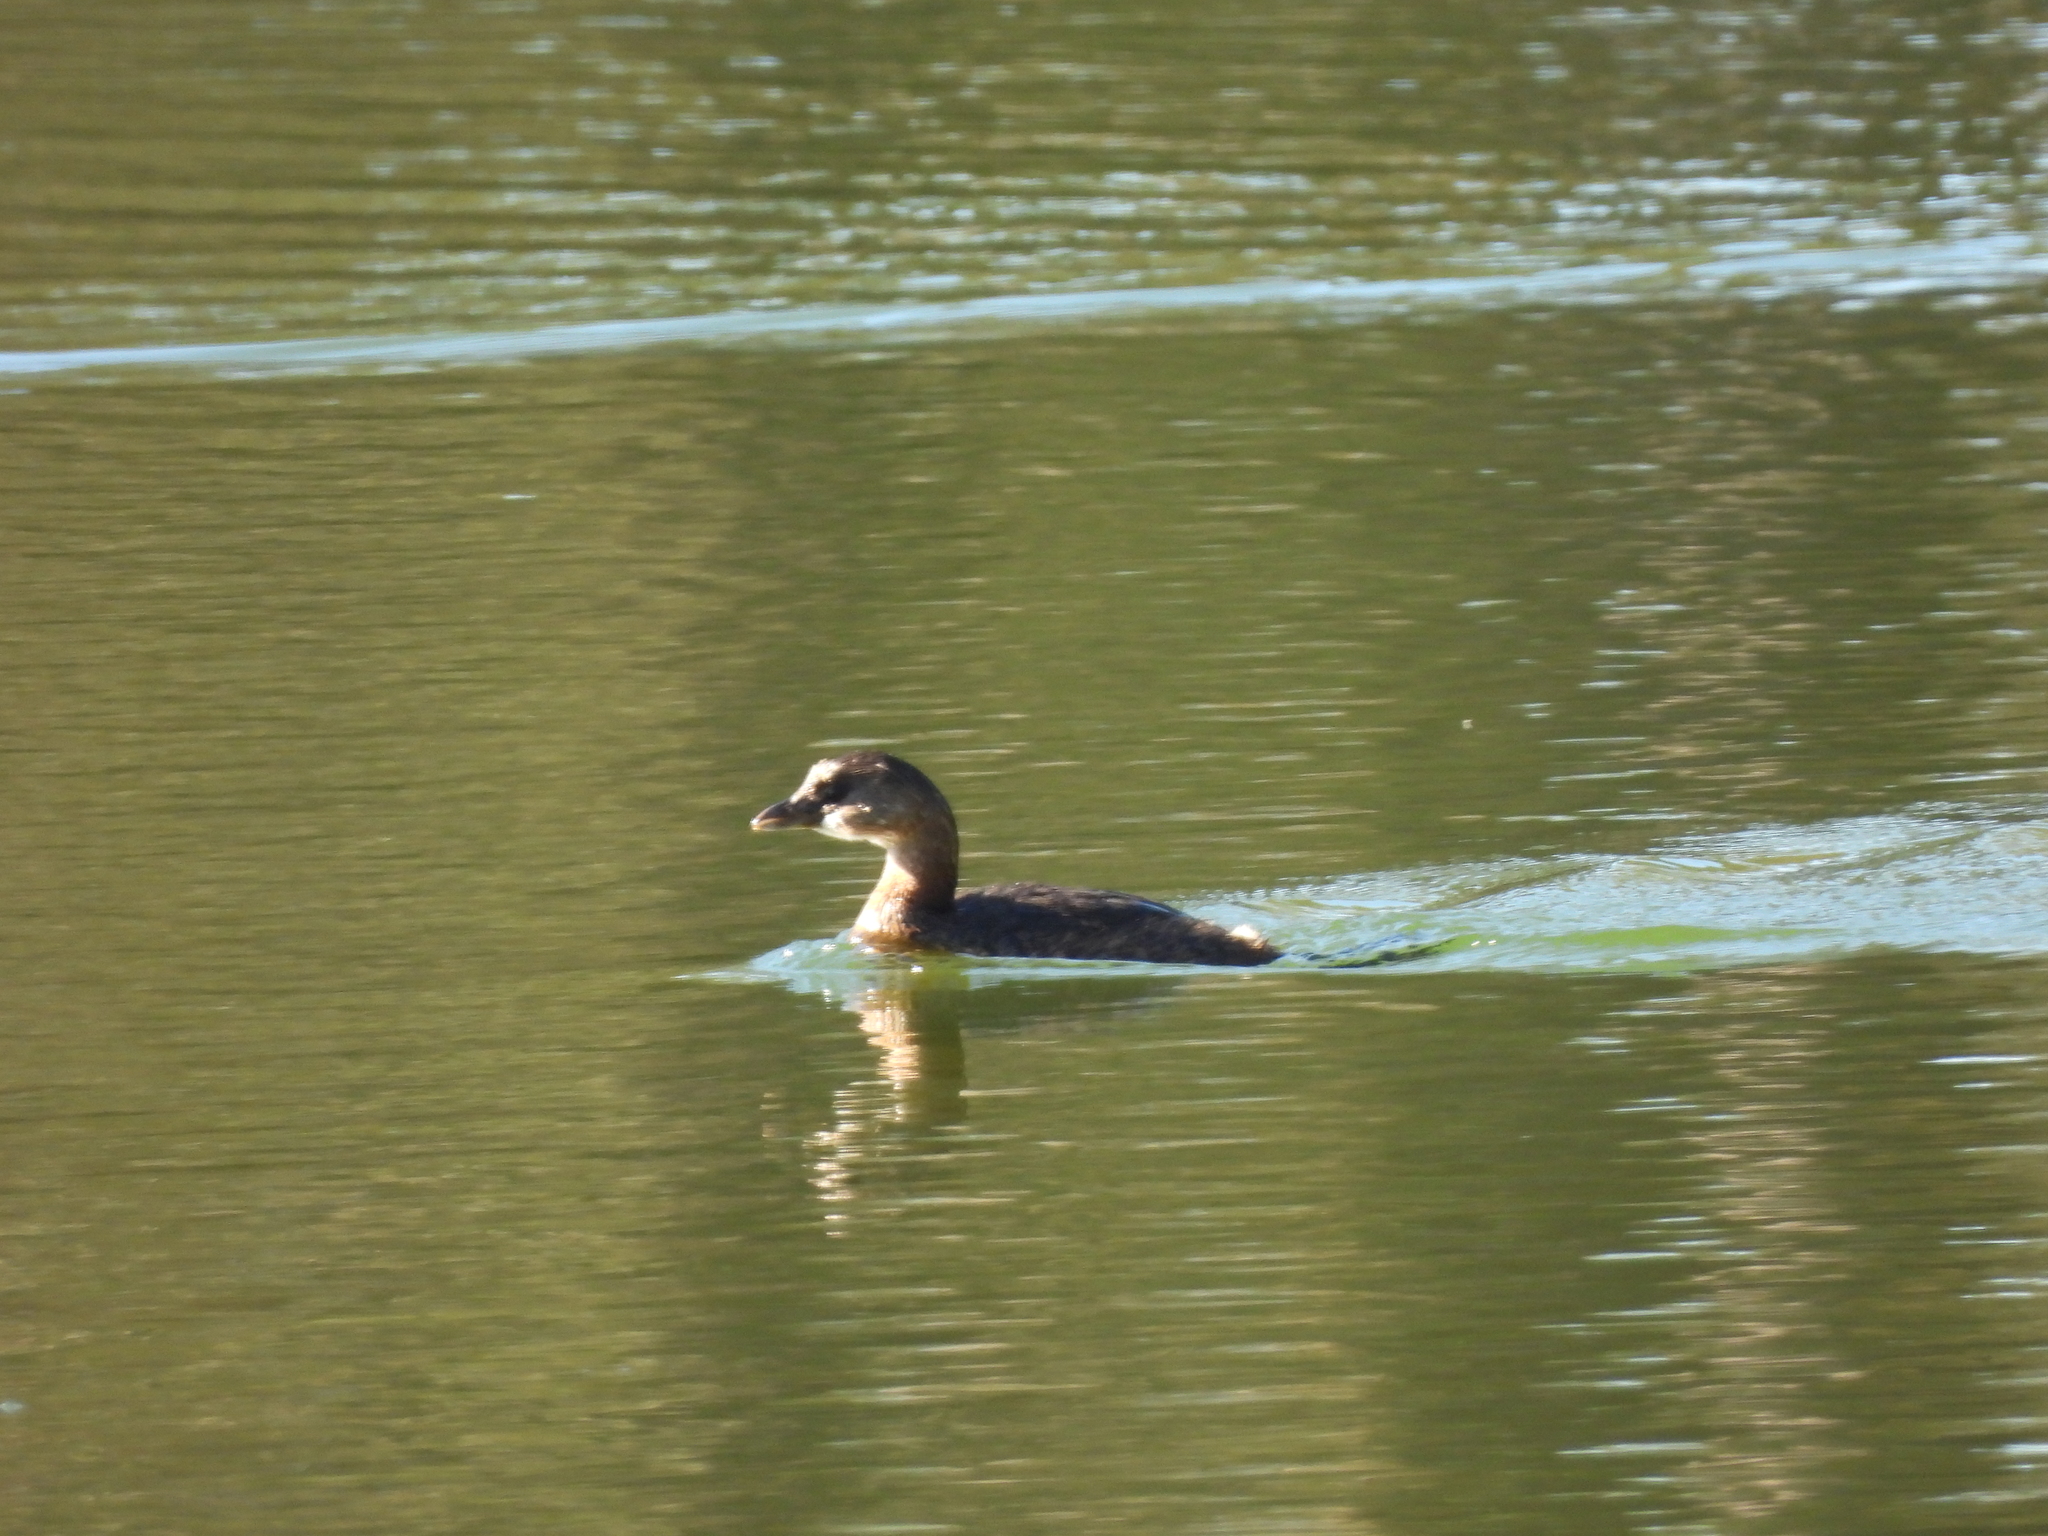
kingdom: Animalia
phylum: Chordata
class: Aves
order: Podicipediformes
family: Podicipedidae
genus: Podilymbus
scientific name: Podilymbus podiceps
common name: Pied-billed grebe
